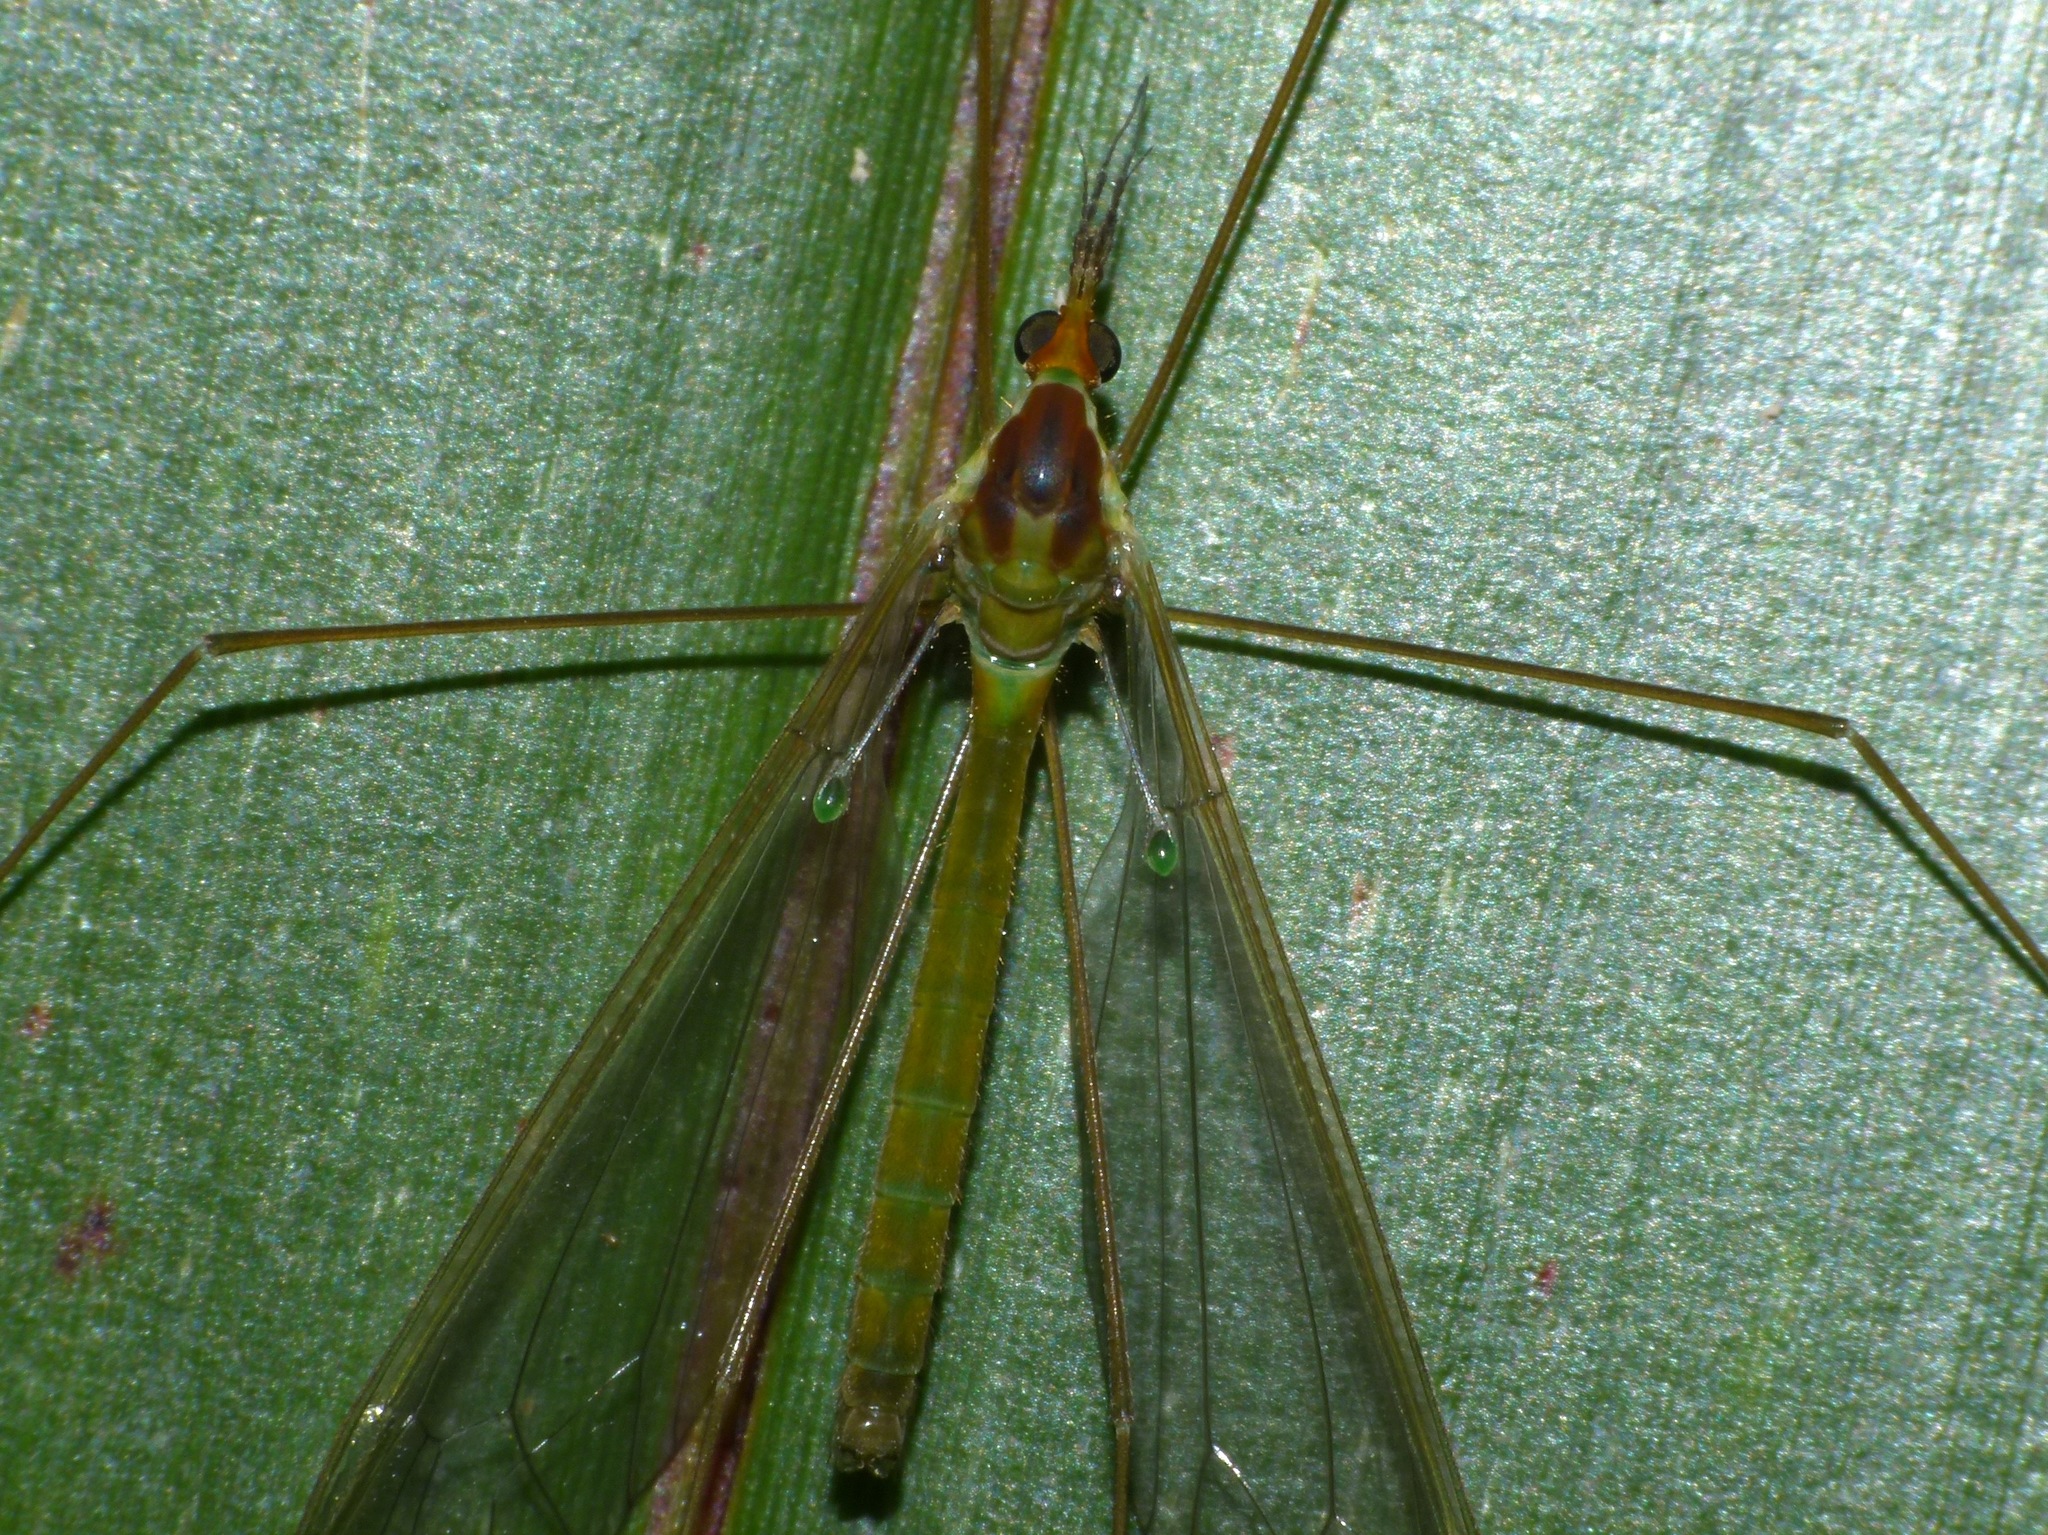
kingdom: Animalia
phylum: Arthropoda
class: Insecta
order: Diptera
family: Tipulidae
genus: Leptotarsus
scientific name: Leptotarsus albistigma
